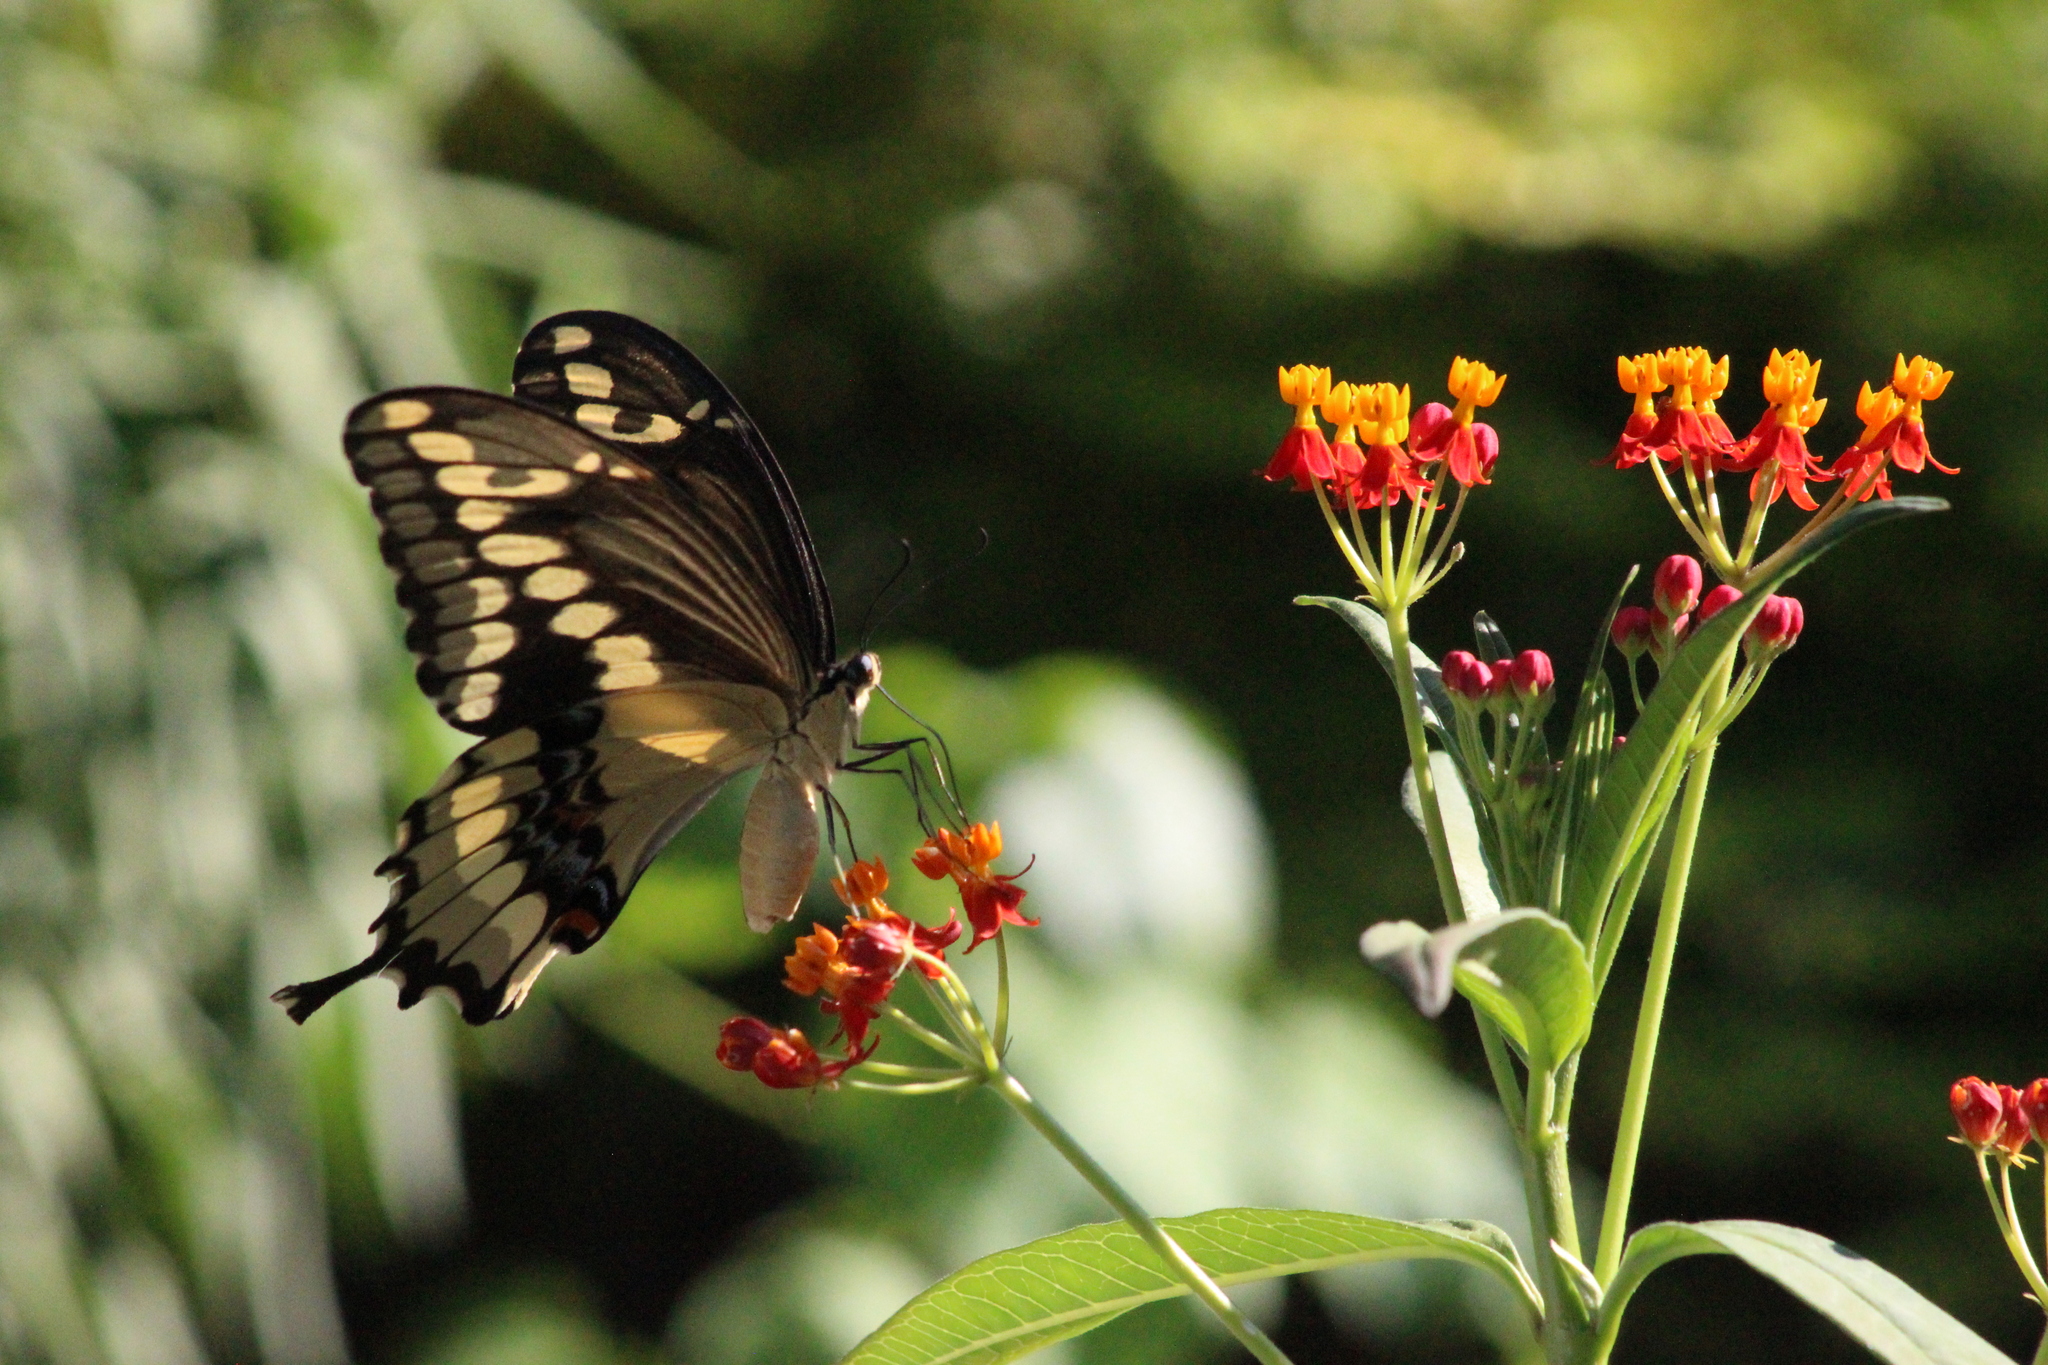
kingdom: Animalia
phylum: Arthropoda
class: Insecta
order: Lepidoptera
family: Papilionidae
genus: Papilio
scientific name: Papilio cresphontes
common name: Giant swallowtail
